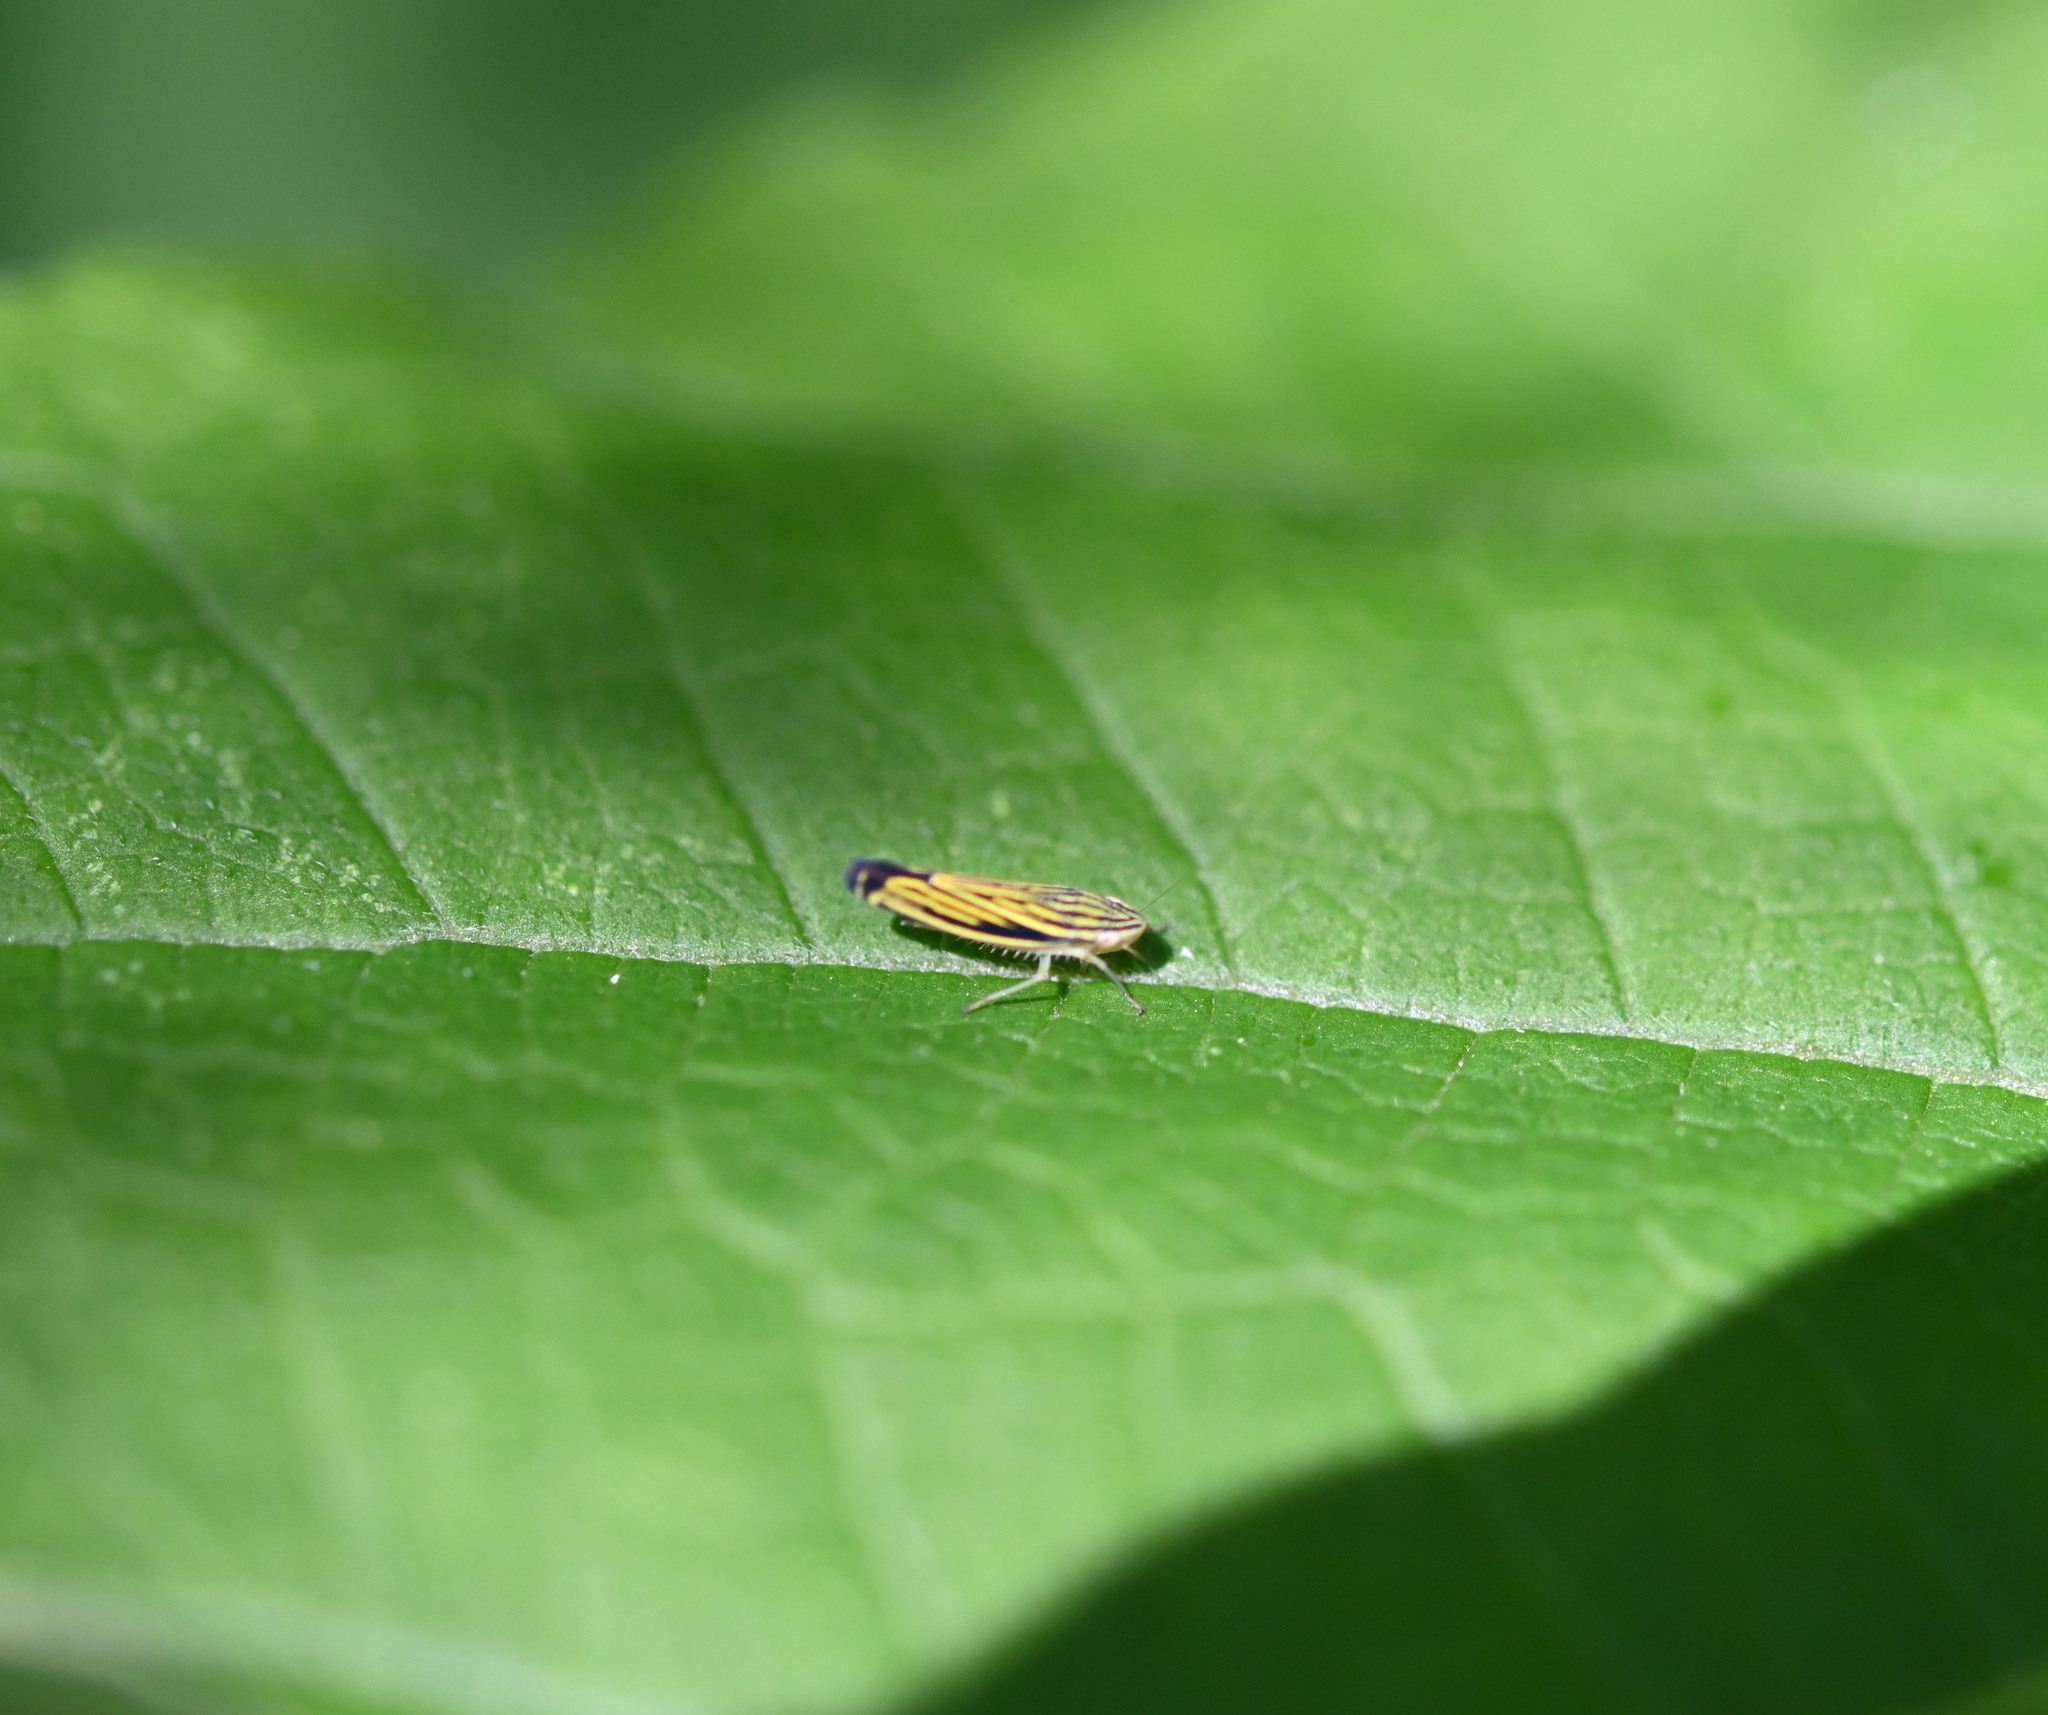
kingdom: Animalia
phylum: Arthropoda
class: Insecta
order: Hemiptera
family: Cicadellidae
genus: Sibovia
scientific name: Sibovia occatoria
